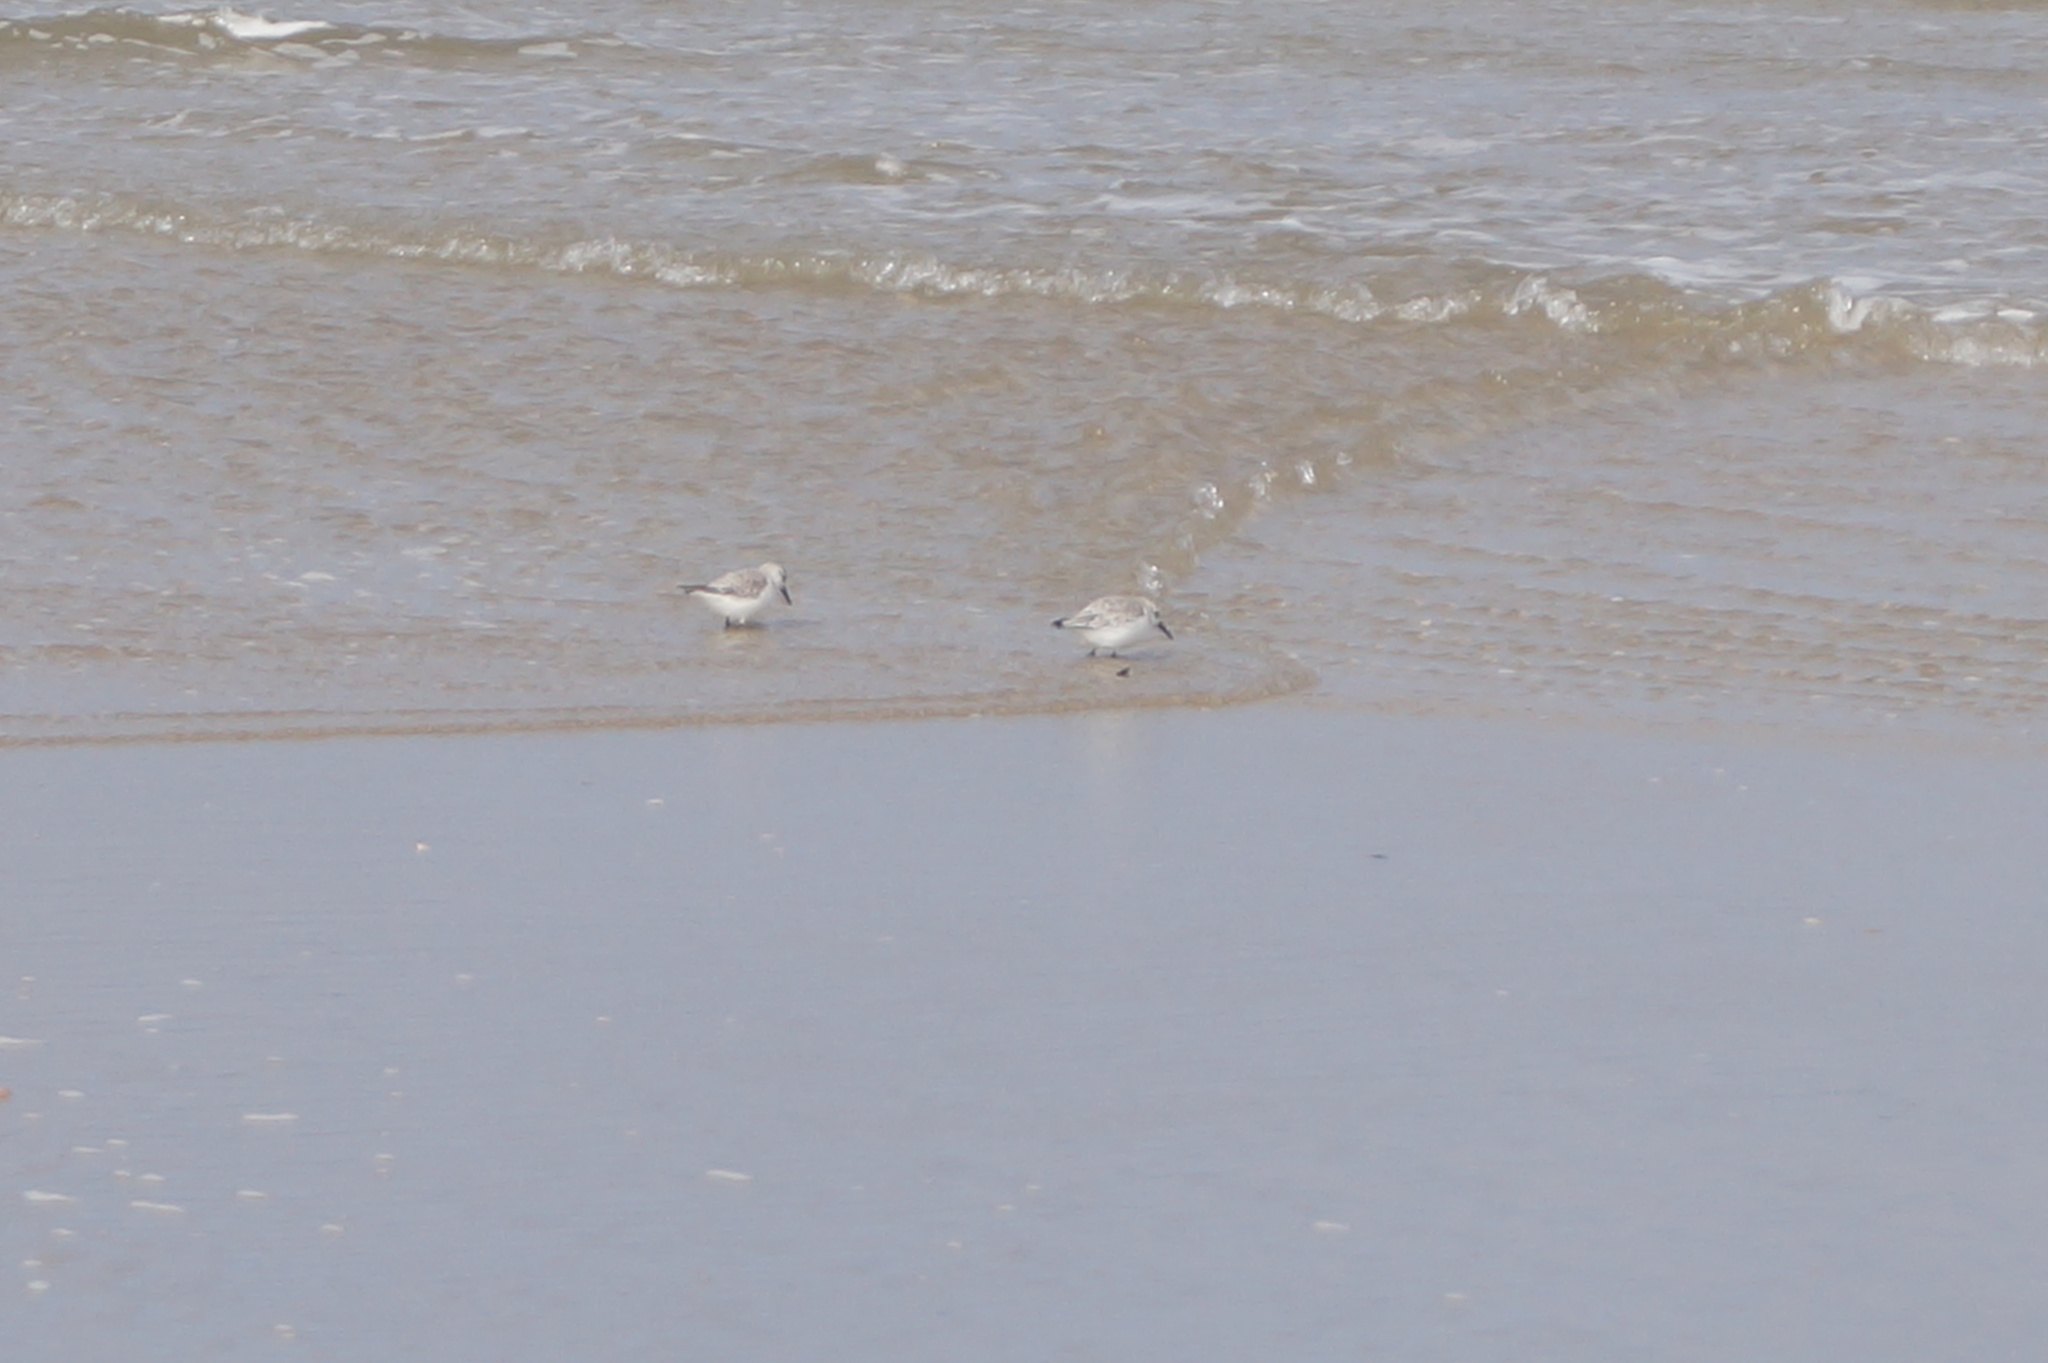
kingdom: Animalia
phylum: Chordata
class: Aves
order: Charadriiformes
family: Scolopacidae
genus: Calidris
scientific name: Calidris alba
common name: Sanderling
